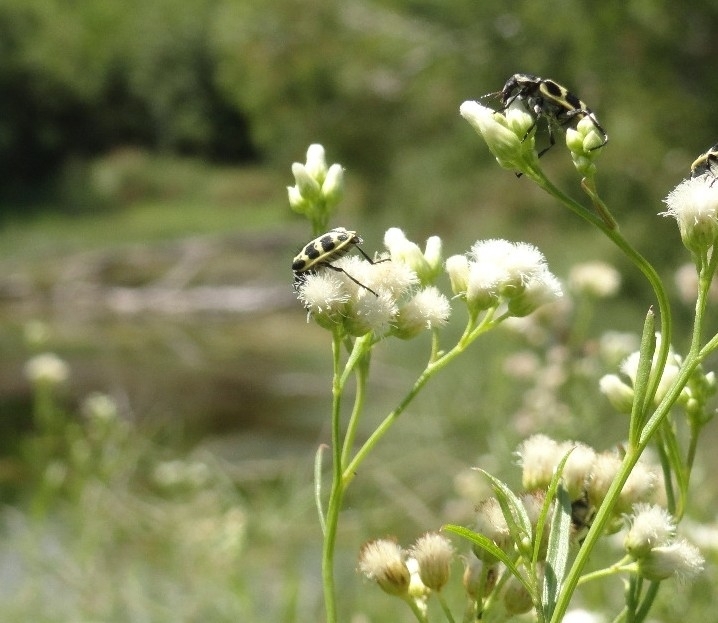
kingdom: Plantae
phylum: Tracheophyta
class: Magnoliopsida
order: Asterales
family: Asteraceae
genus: Baccharis
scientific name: Baccharis glutinosa
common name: Saltmarsh baccharis
